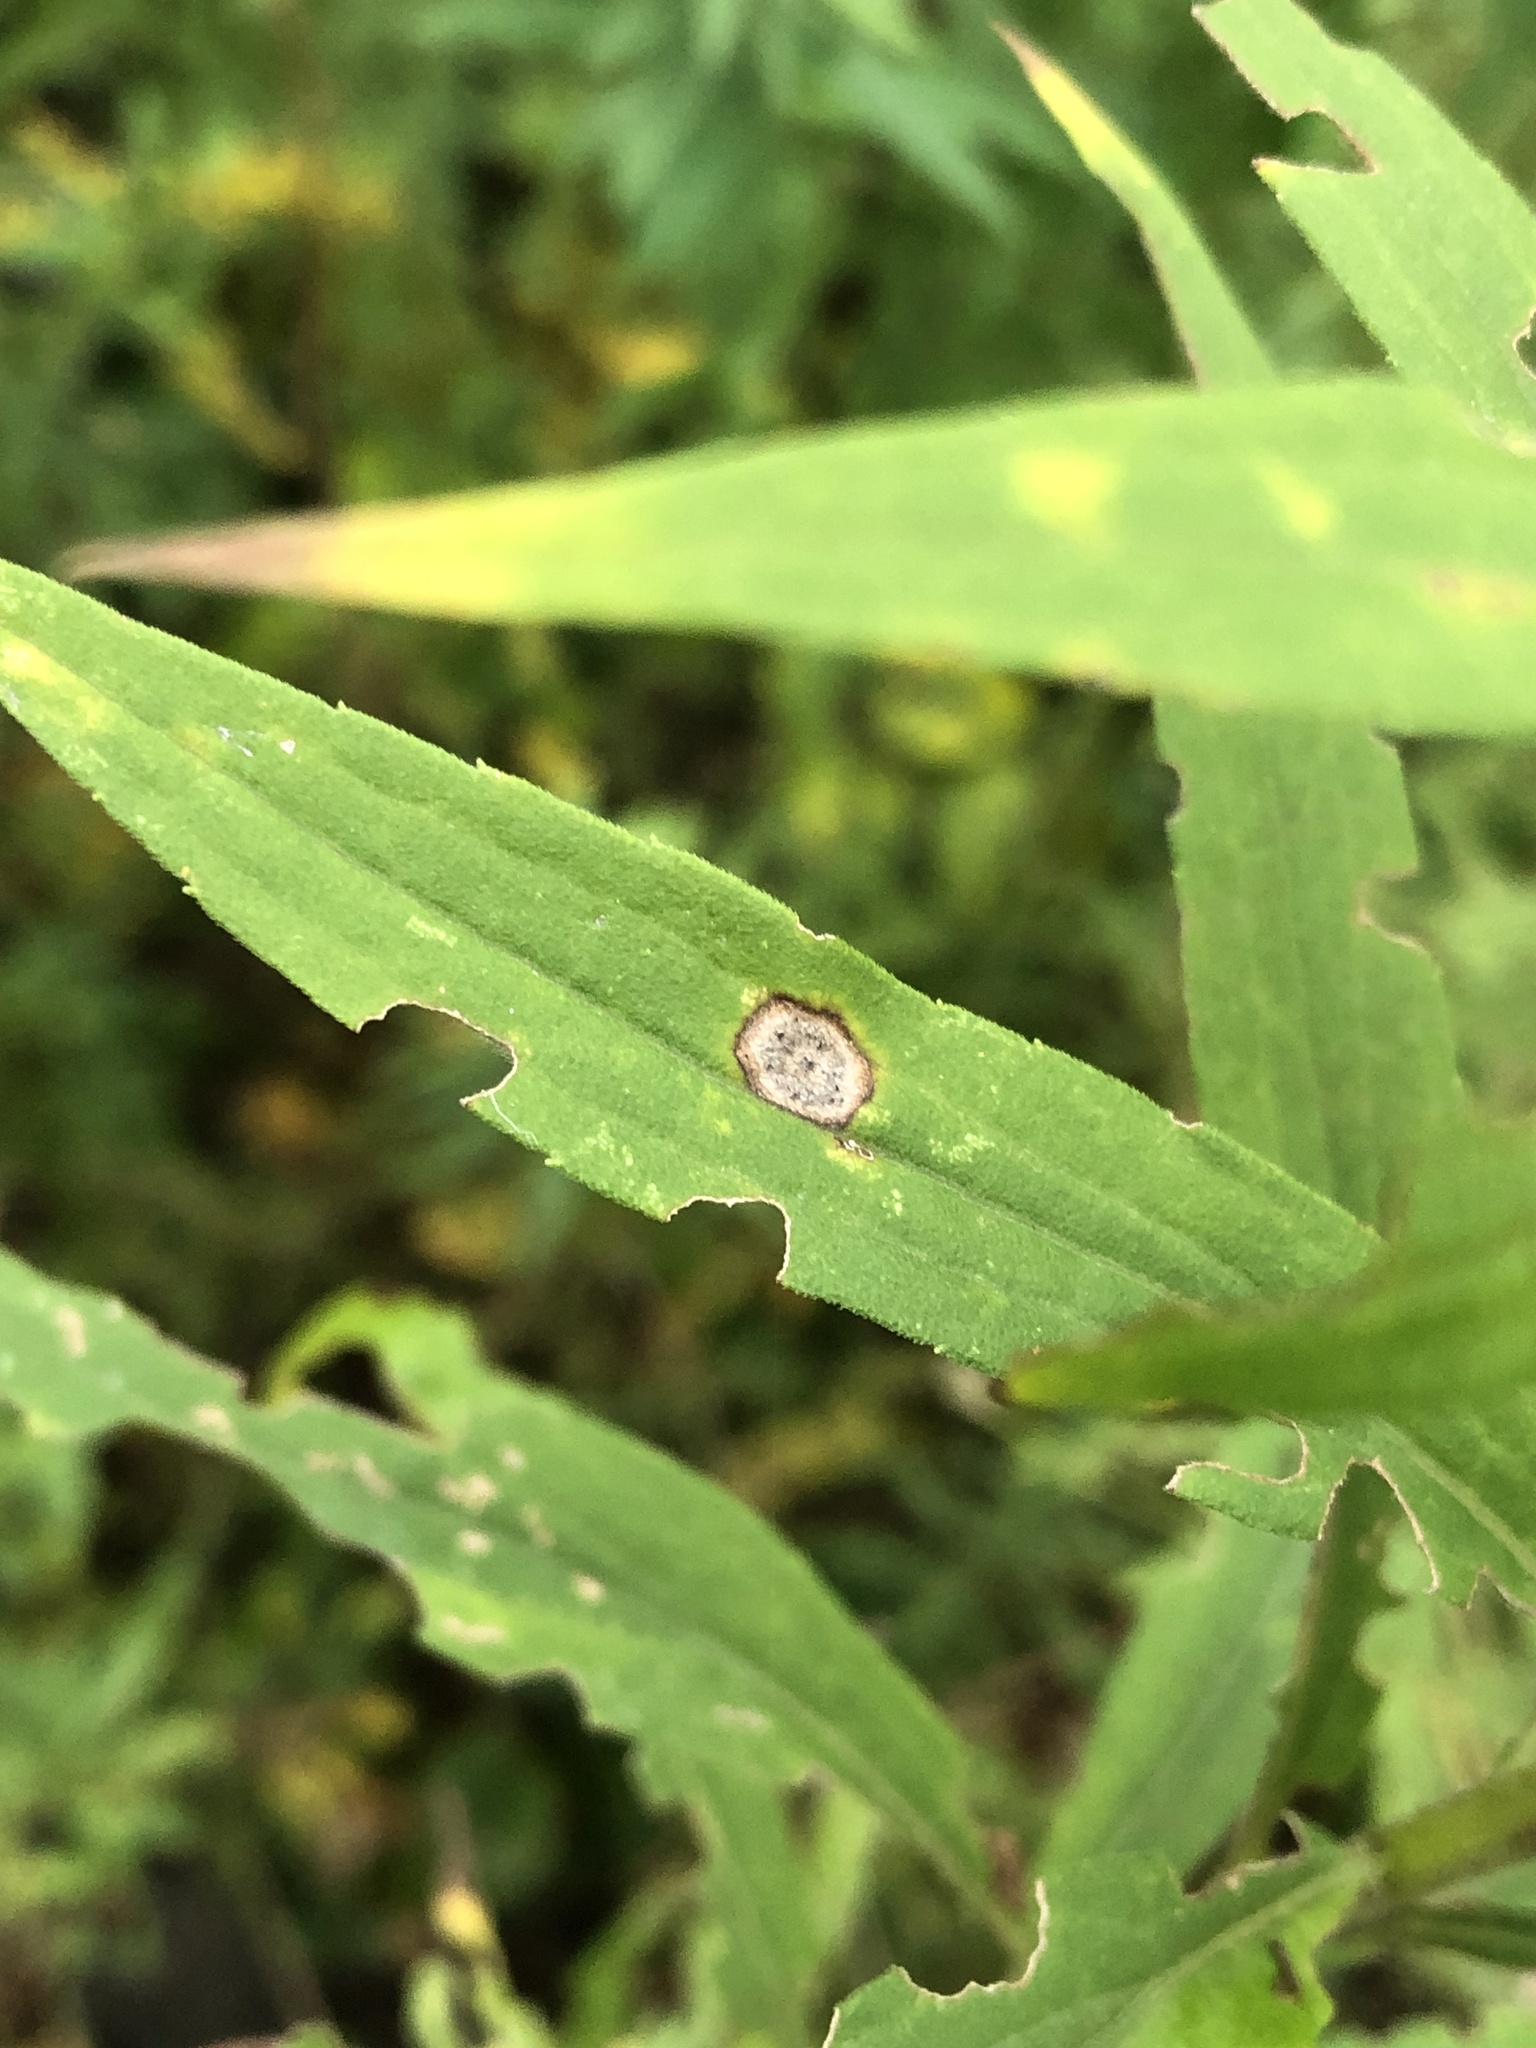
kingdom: Animalia
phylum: Arthropoda
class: Insecta
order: Diptera
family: Cecidomyiidae
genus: Asteromyia
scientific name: Asteromyia carbonifera
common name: Carbonifera goldenrod gall midge
